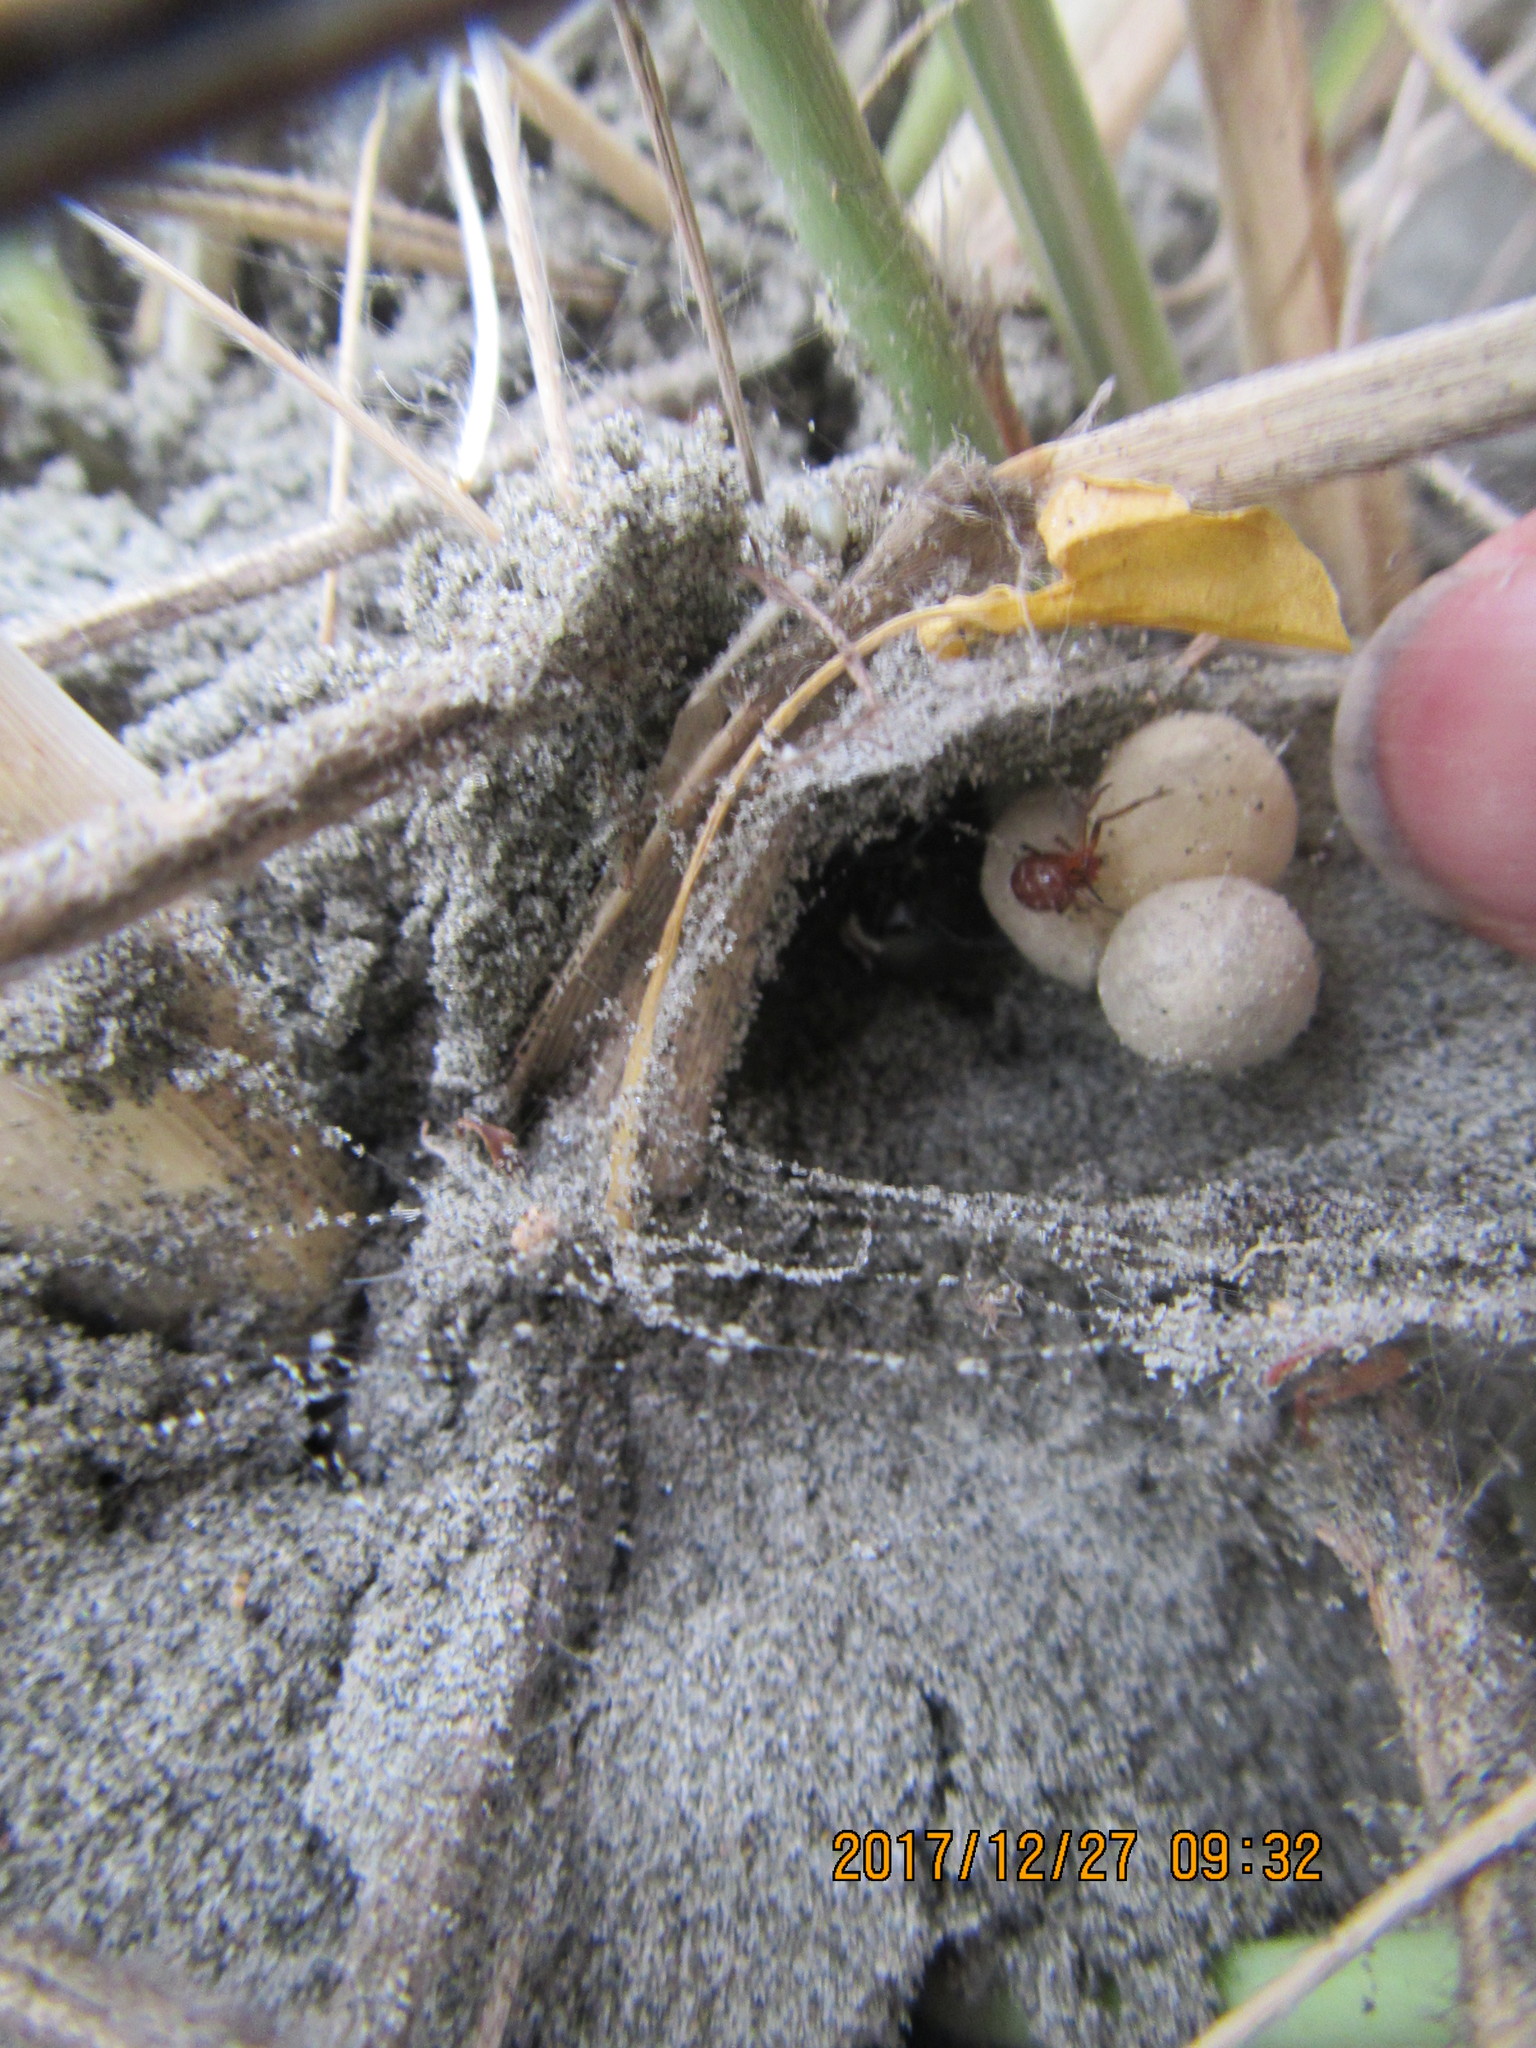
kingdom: Animalia
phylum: Arthropoda
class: Arachnida
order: Araneae
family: Theridiidae
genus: Latrodectus
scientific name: Latrodectus katipo
